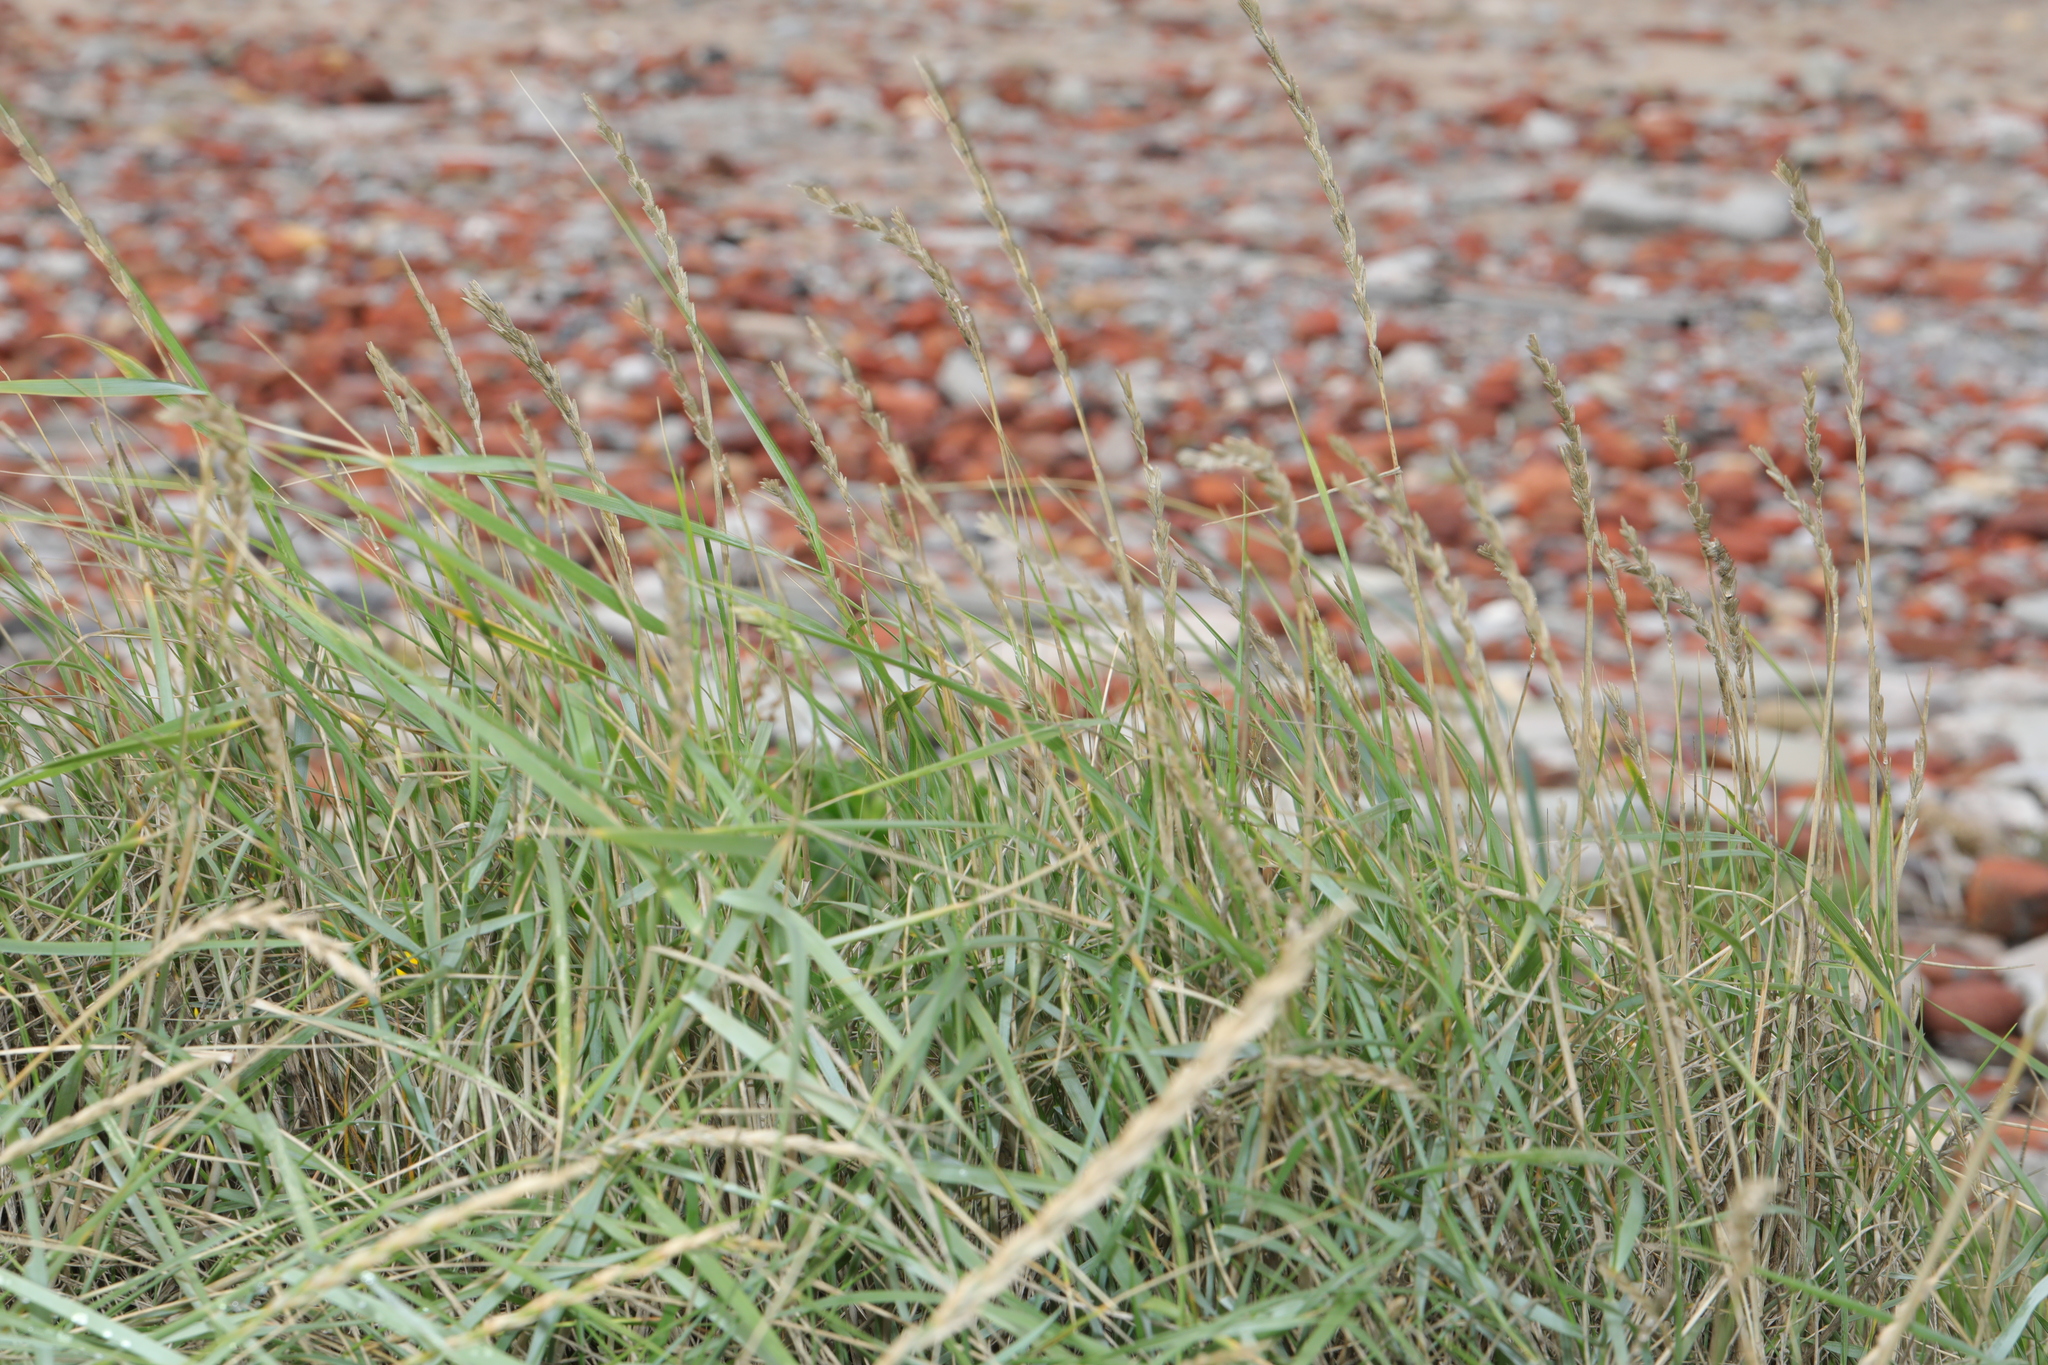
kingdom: Plantae
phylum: Tracheophyta
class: Liliopsida
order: Poales
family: Poaceae
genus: Elymus
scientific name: Elymus athericus
